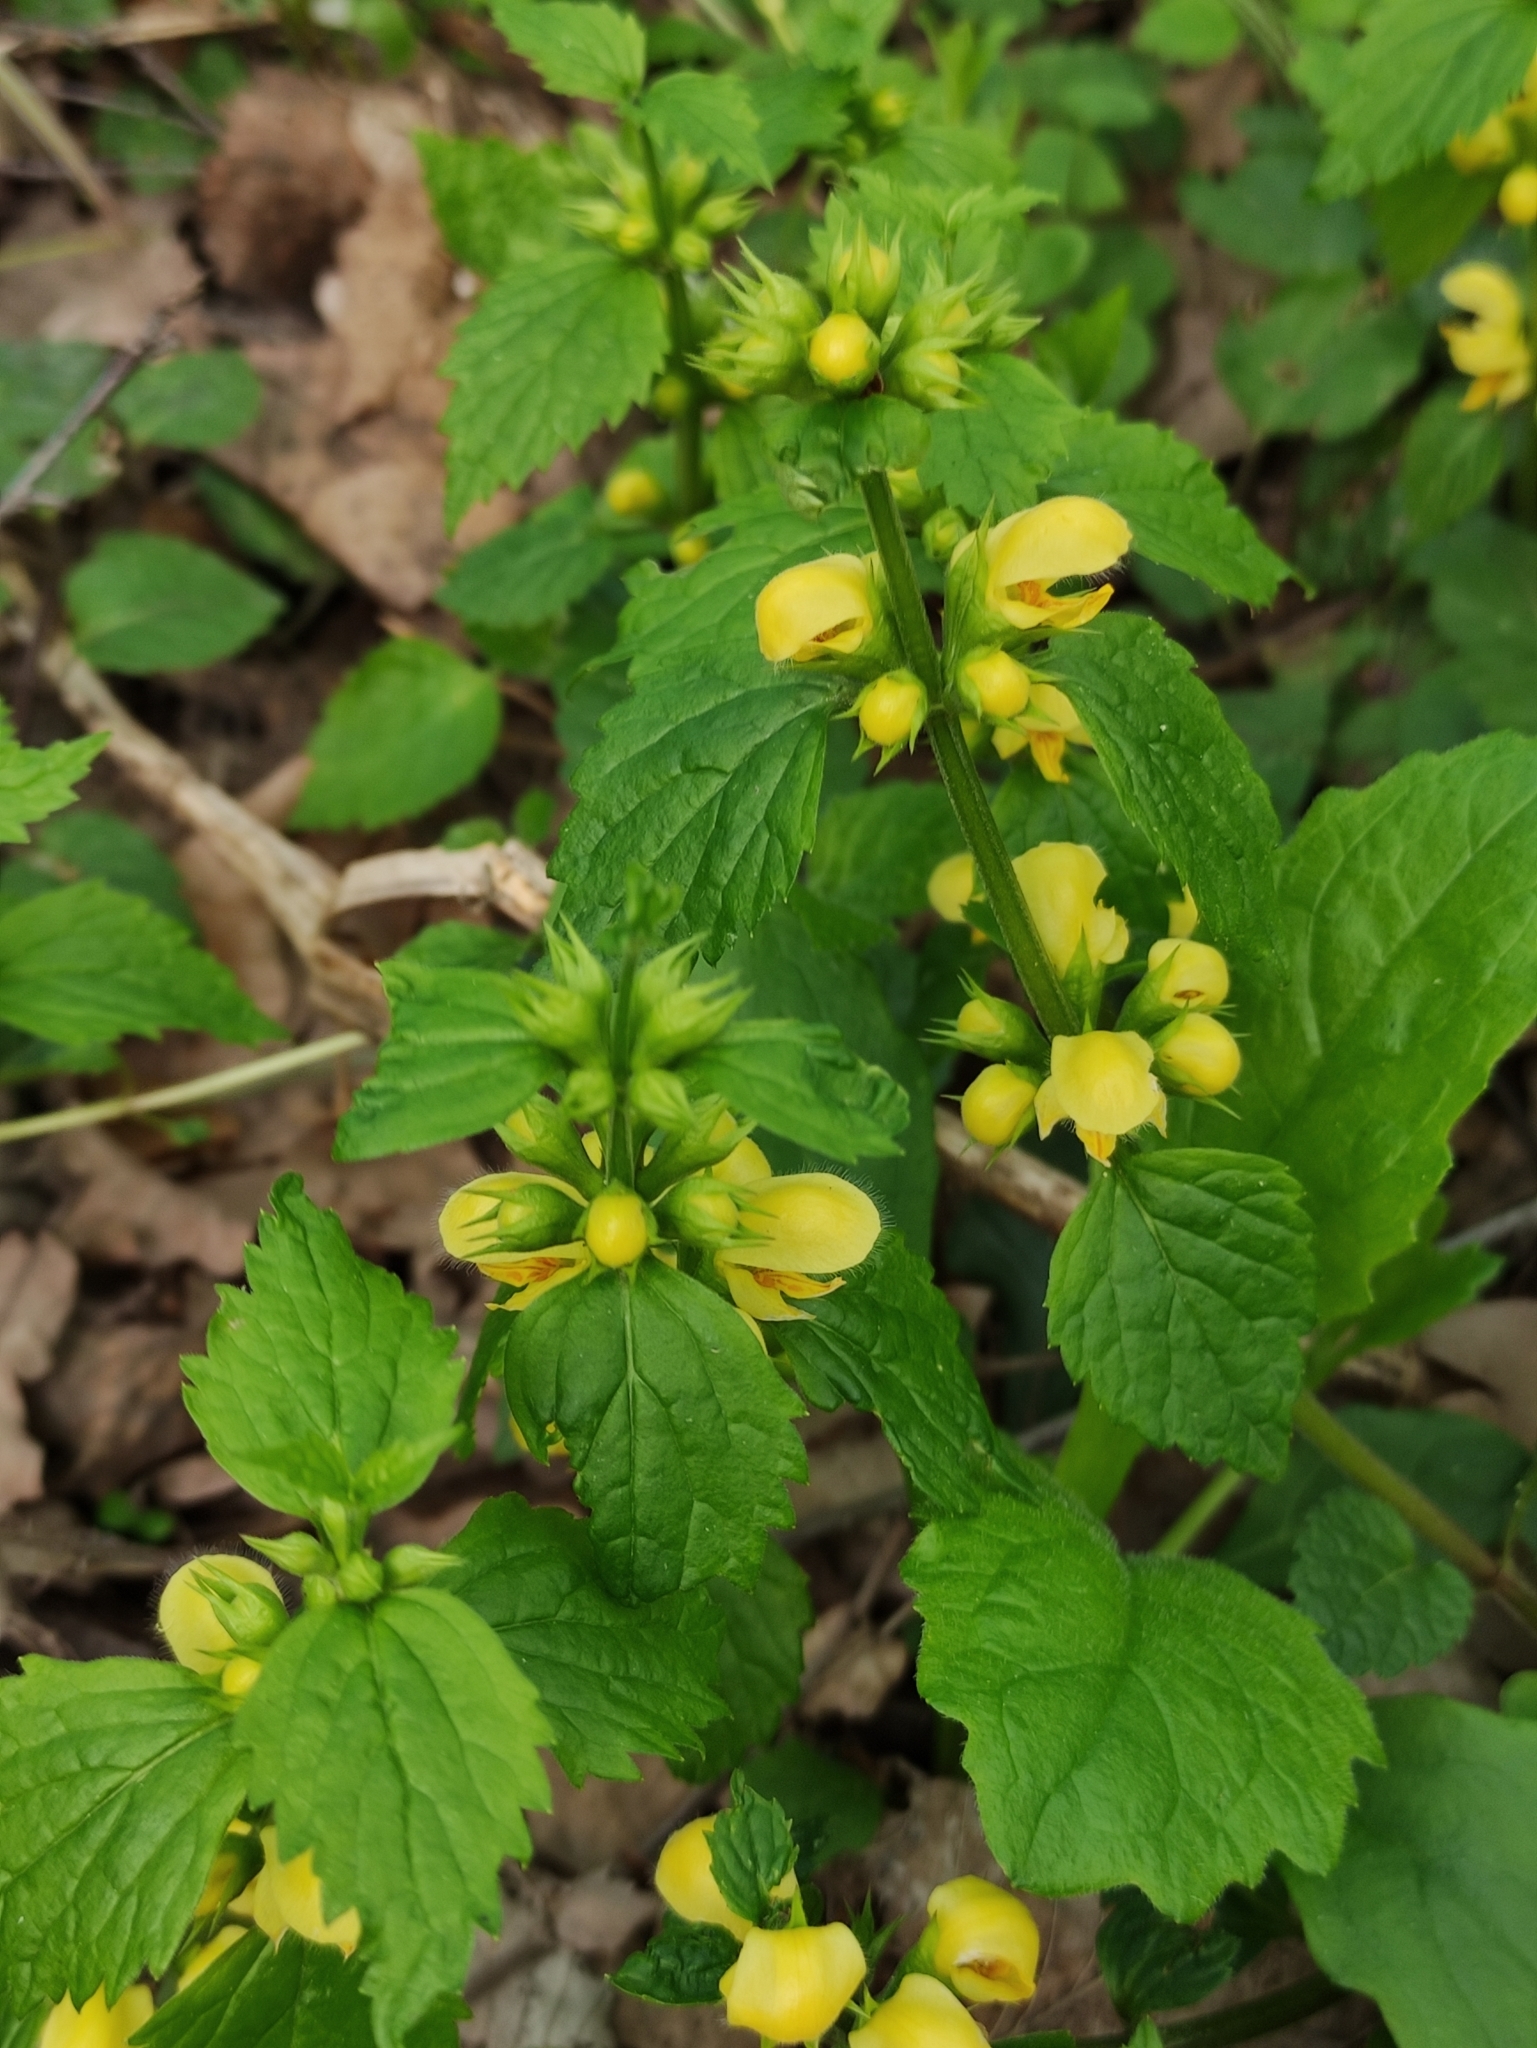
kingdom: Plantae
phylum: Tracheophyta
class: Magnoliopsida
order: Lamiales
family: Lamiaceae
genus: Lamium
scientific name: Lamium galeobdolon
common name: Yellow archangel
